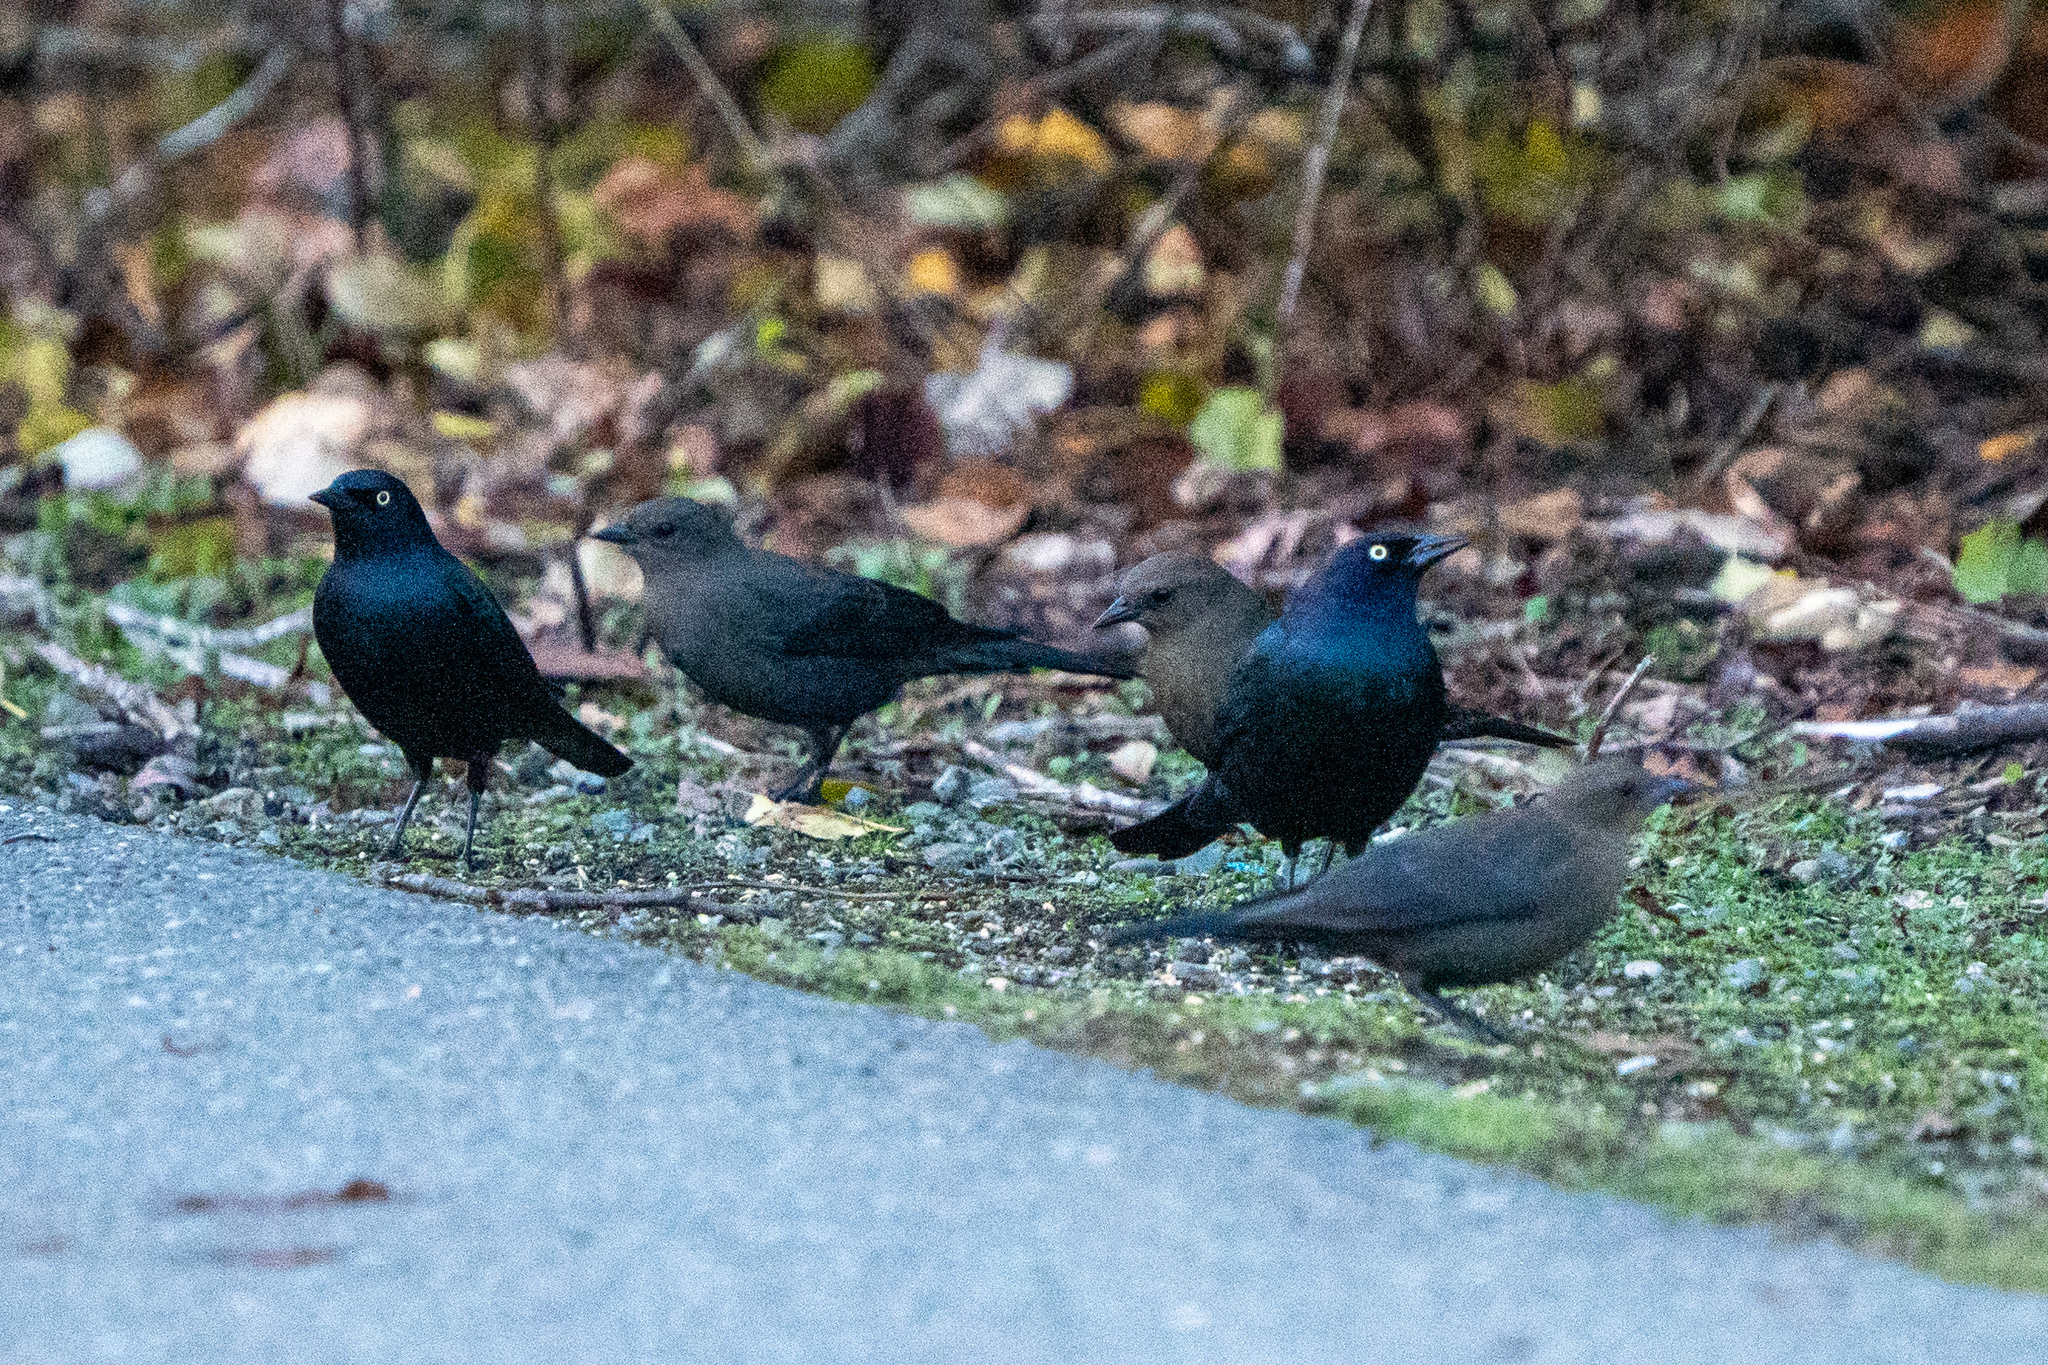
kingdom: Animalia
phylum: Chordata
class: Aves
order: Passeriformes
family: Icteridae
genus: Euphagus
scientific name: Euphagus cyanocephalus
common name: Brewer's blackbird
